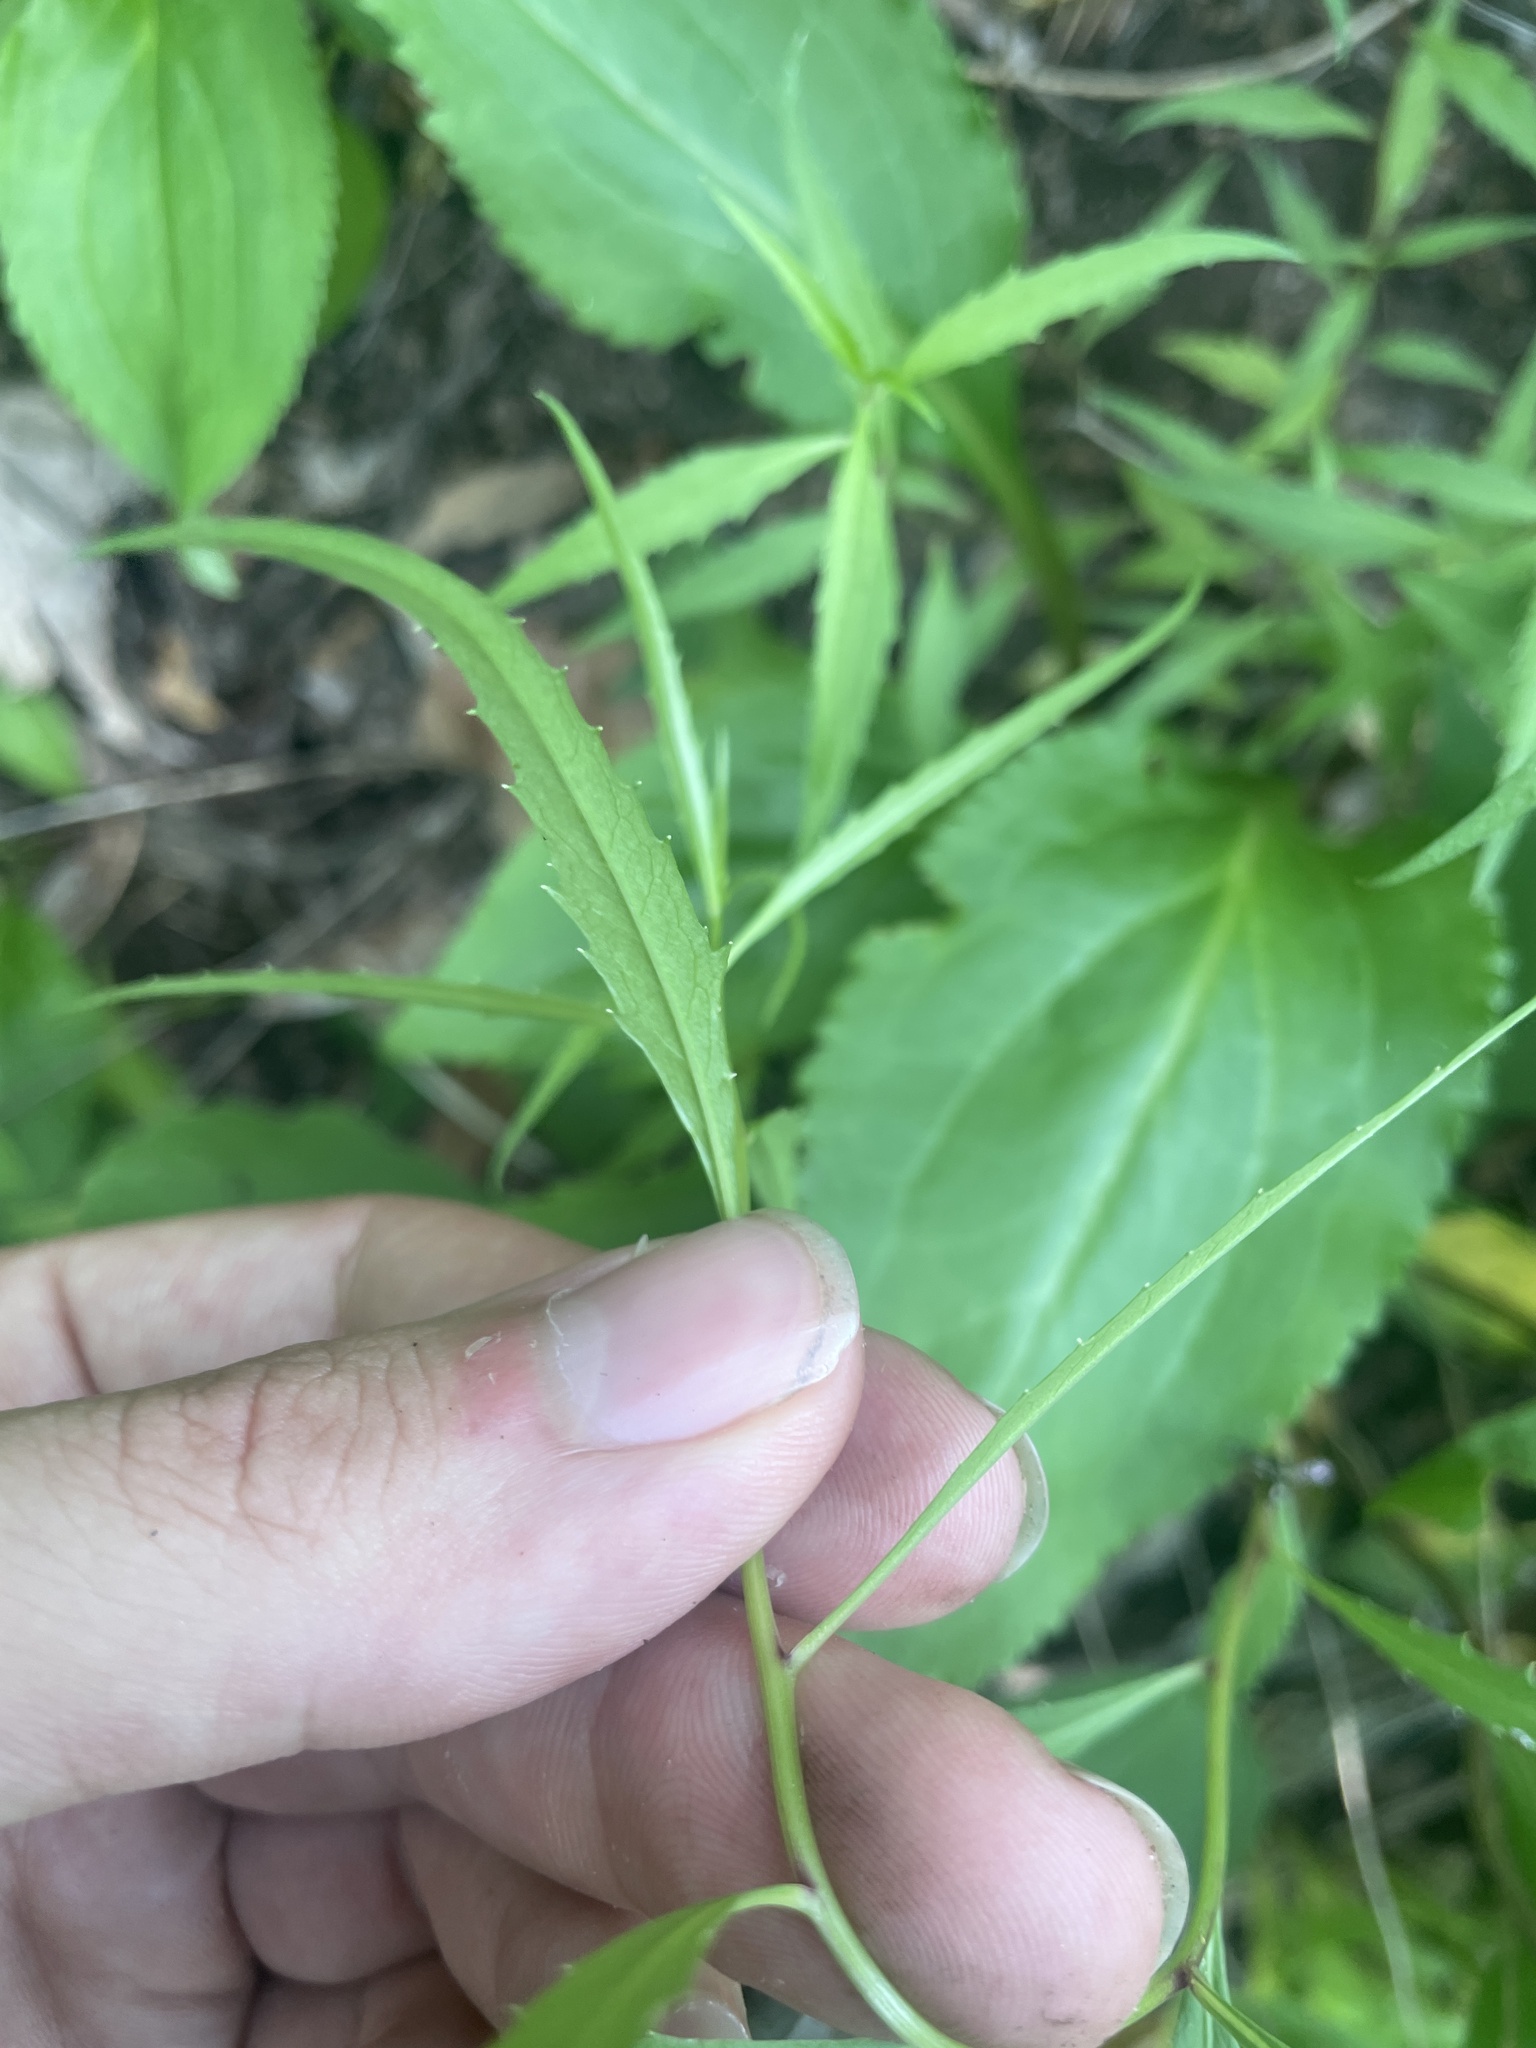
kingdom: Plantae
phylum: Tracheophyta
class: Magnoliopsida
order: Asterales
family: Campanulaceae
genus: Campanula
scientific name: Campanula divaricata
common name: Appalachian bellflower
